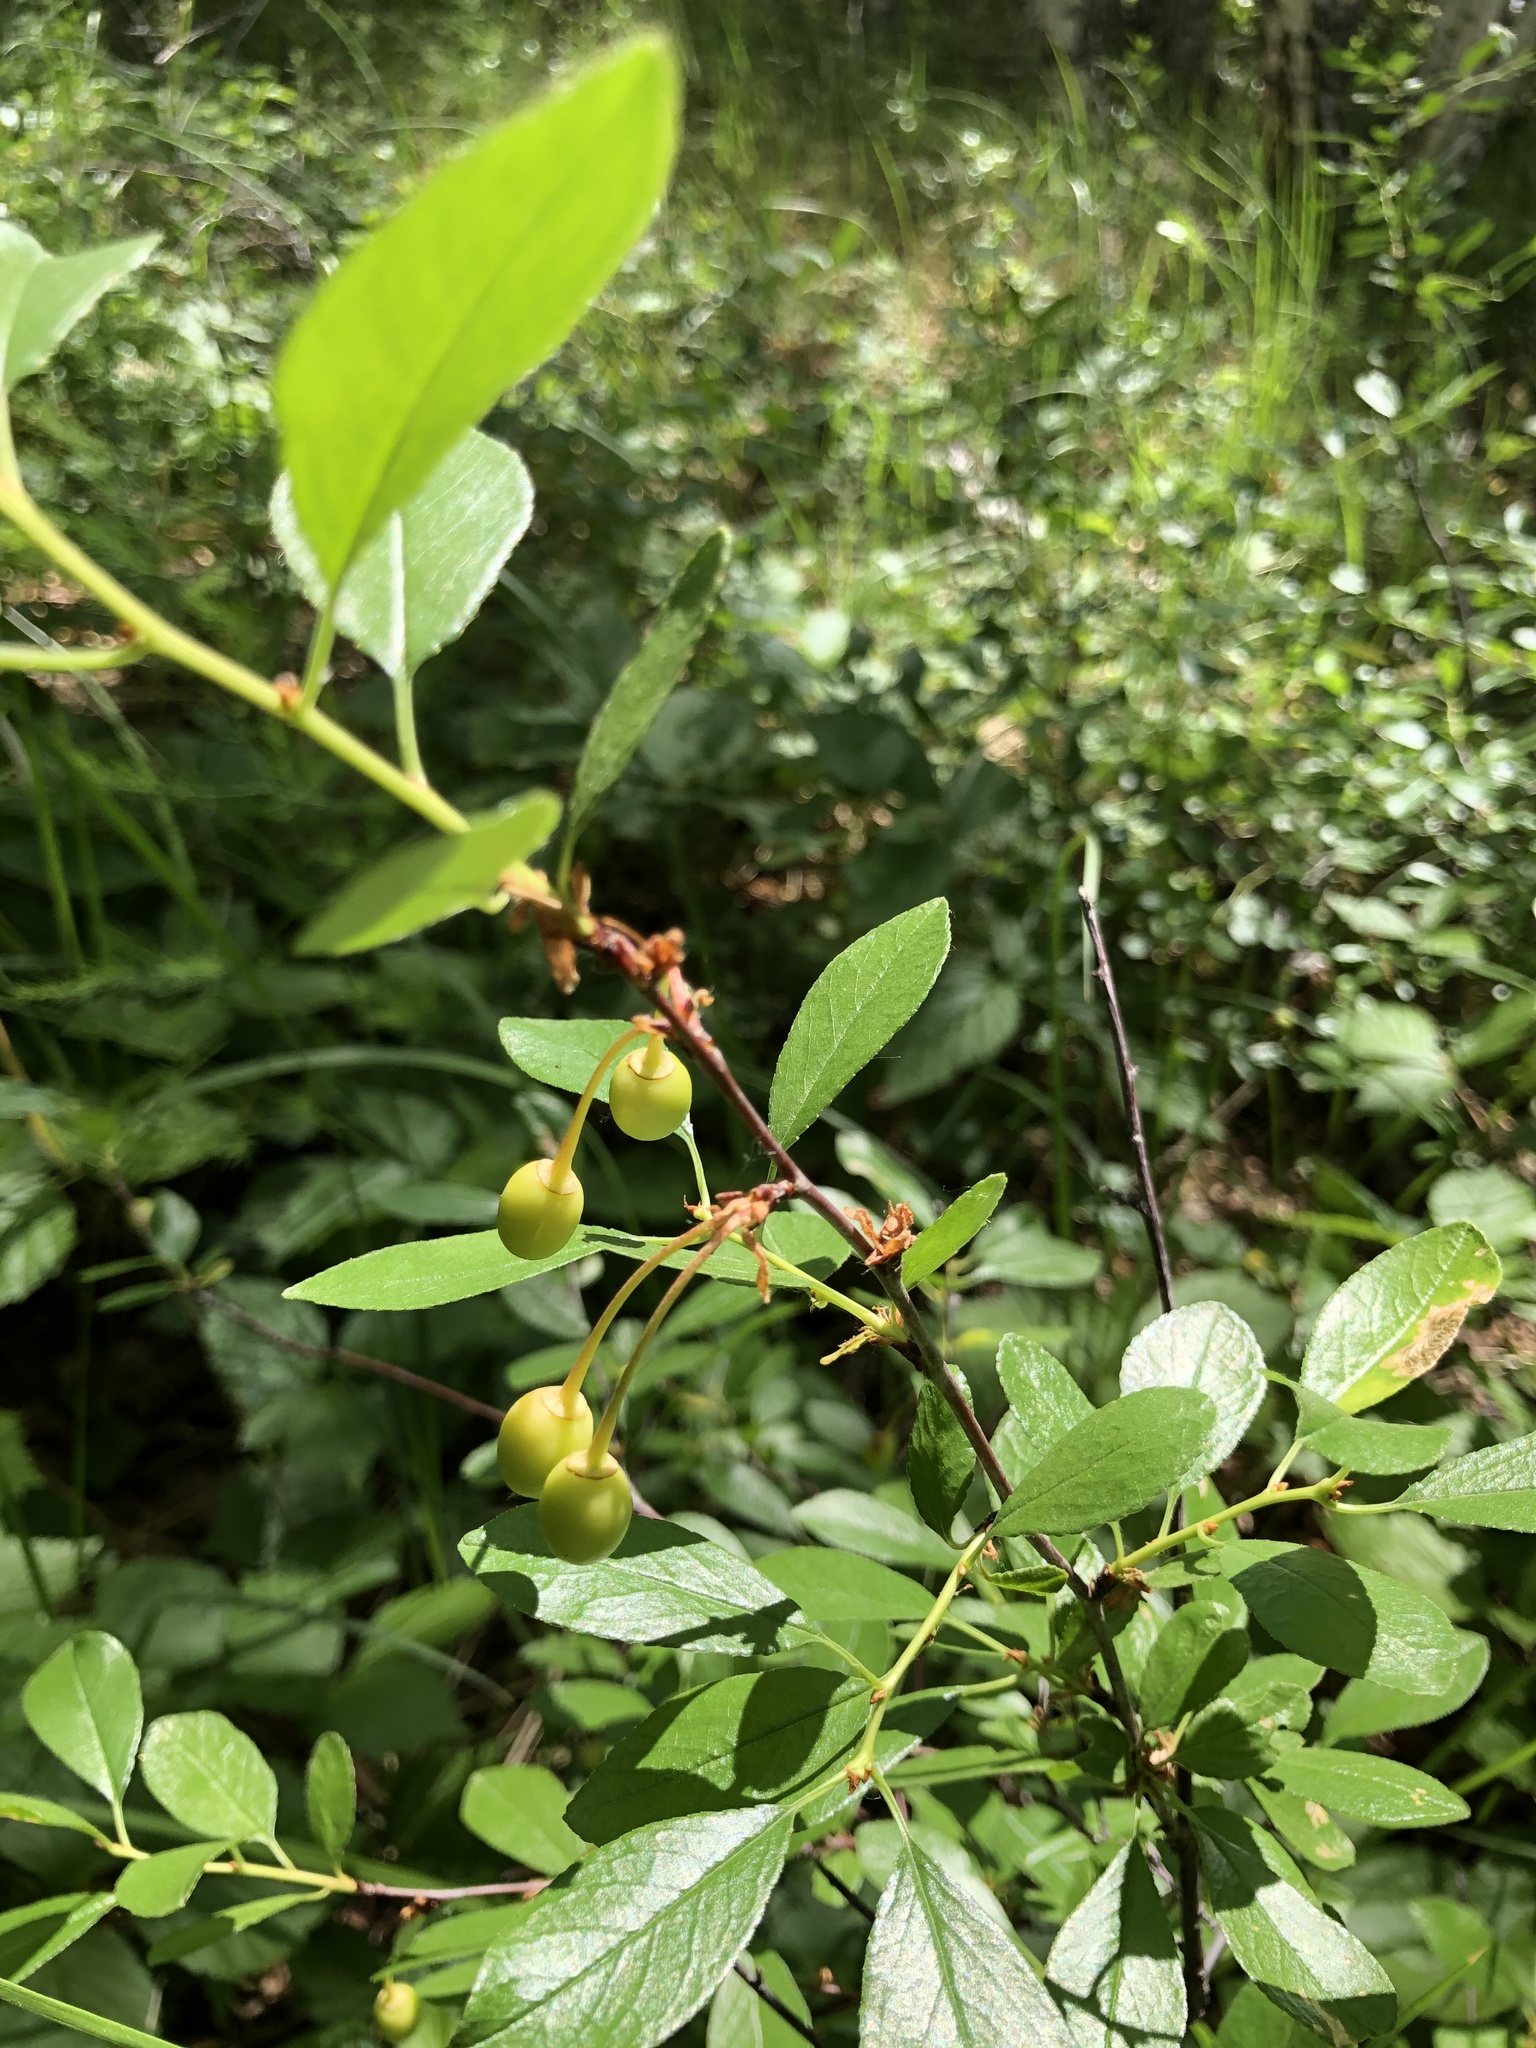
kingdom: Plantae
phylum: Tracheophyta
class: Magnoliopsida
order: Rosales
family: Rosaceae
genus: Prunus
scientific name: Prunus fruticosa
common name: European dwarf cherry
